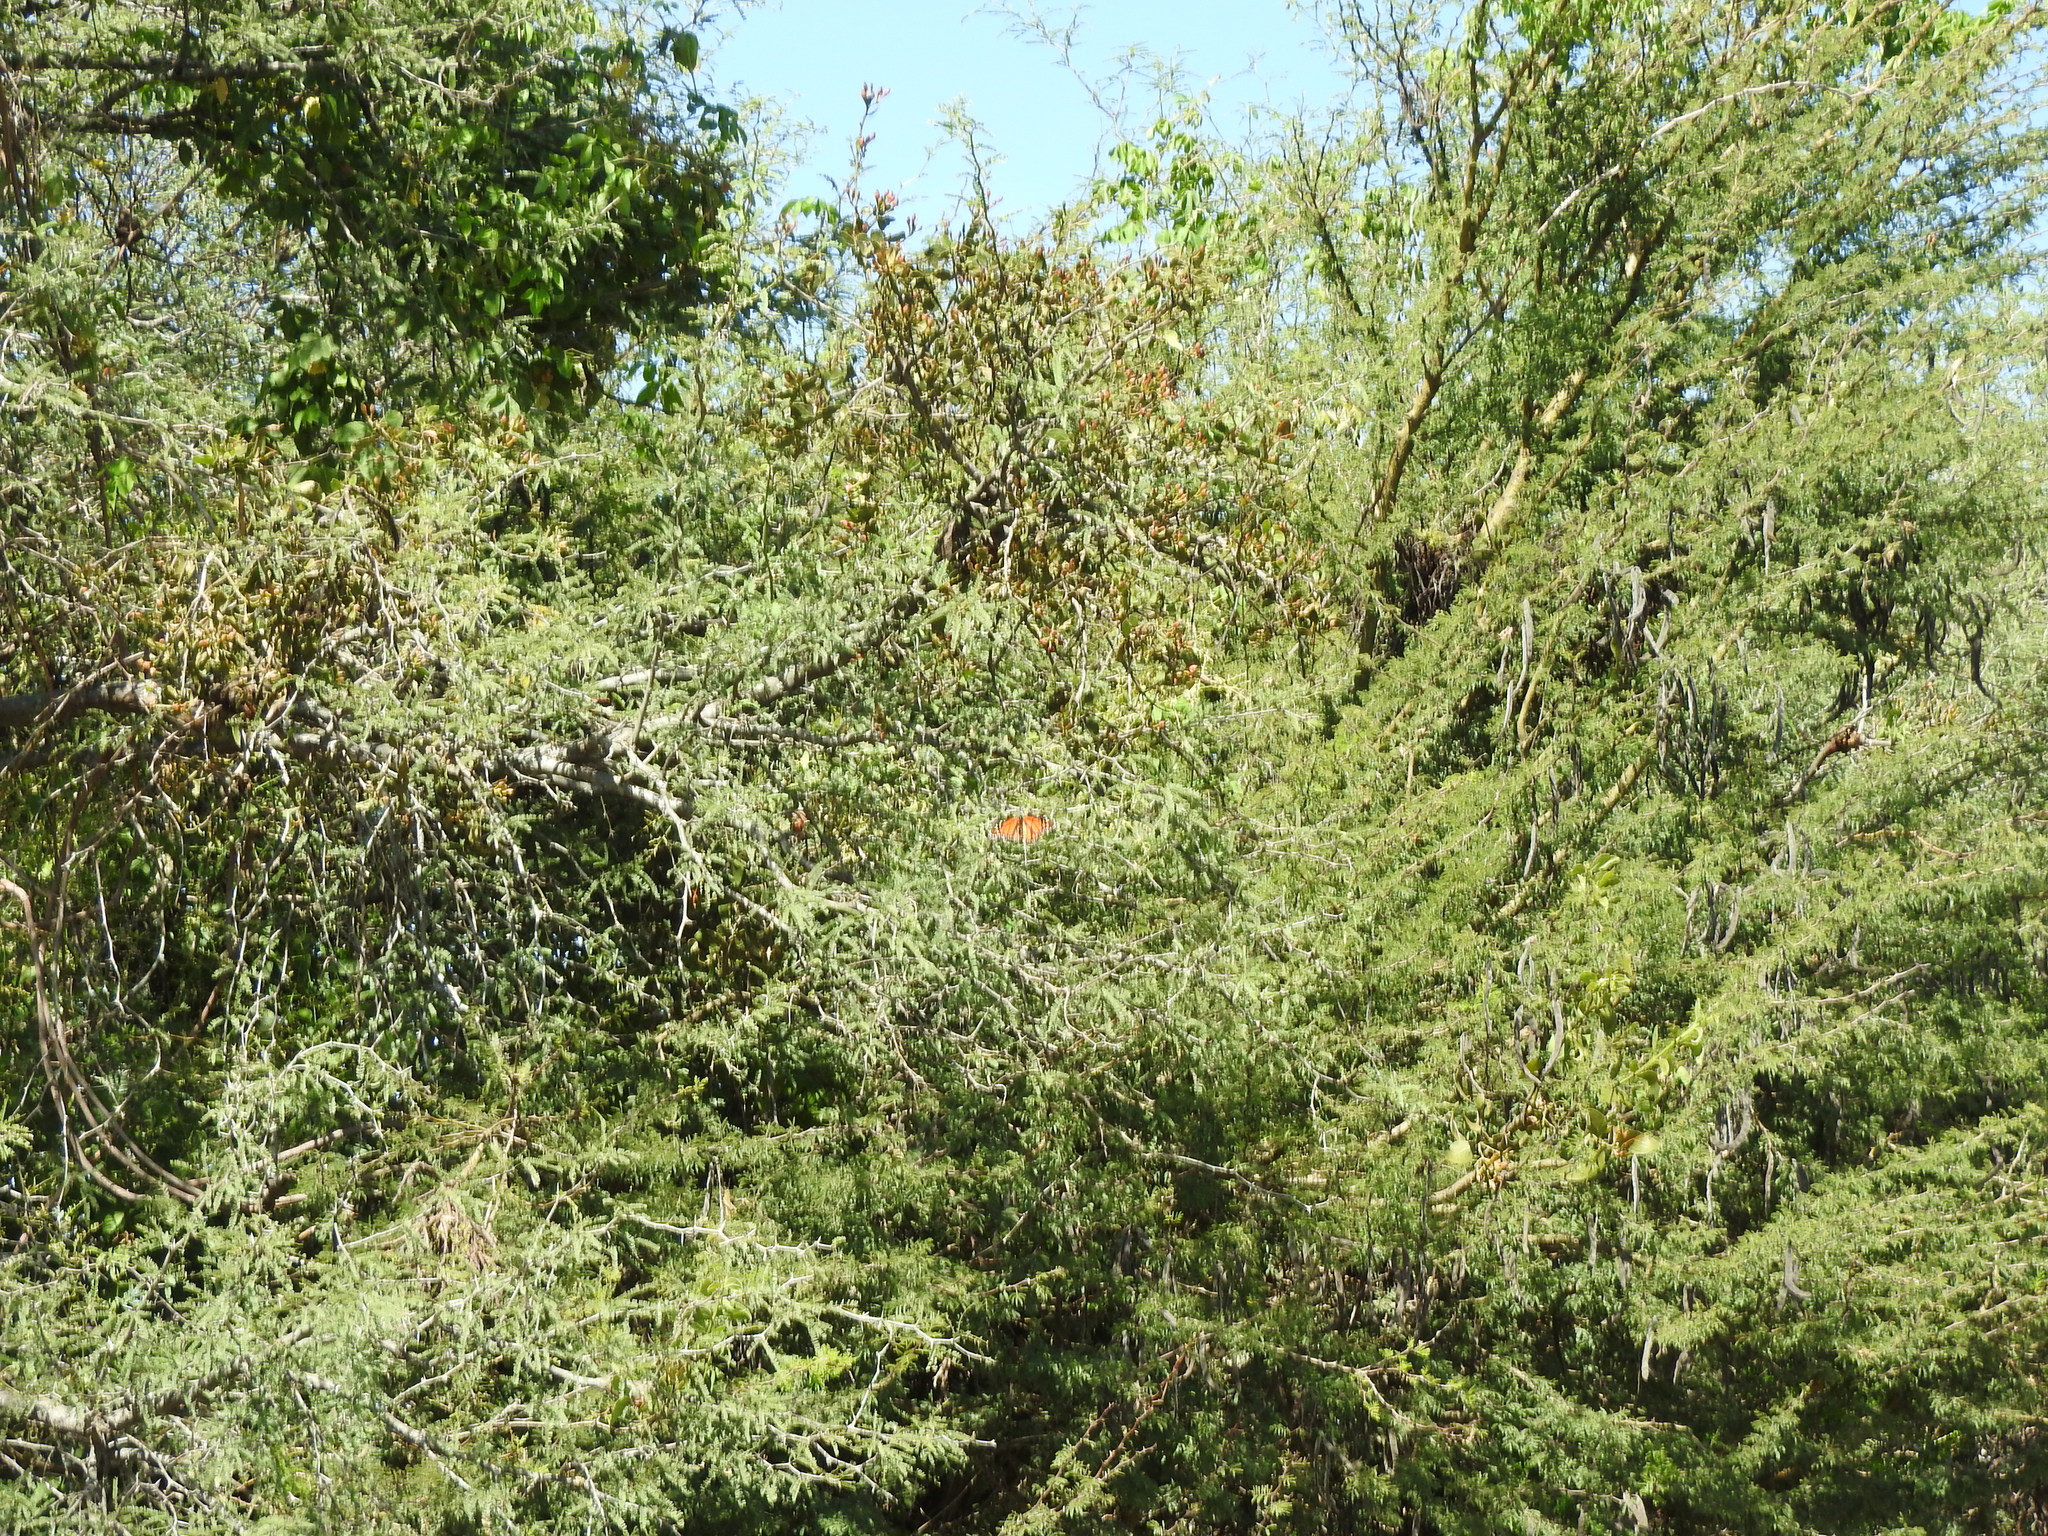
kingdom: Animalia
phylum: Arthropoda
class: Insecta
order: Lepidoptera
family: Nymphalidae
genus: Danaus
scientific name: Danaus plexippus
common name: Monarch
